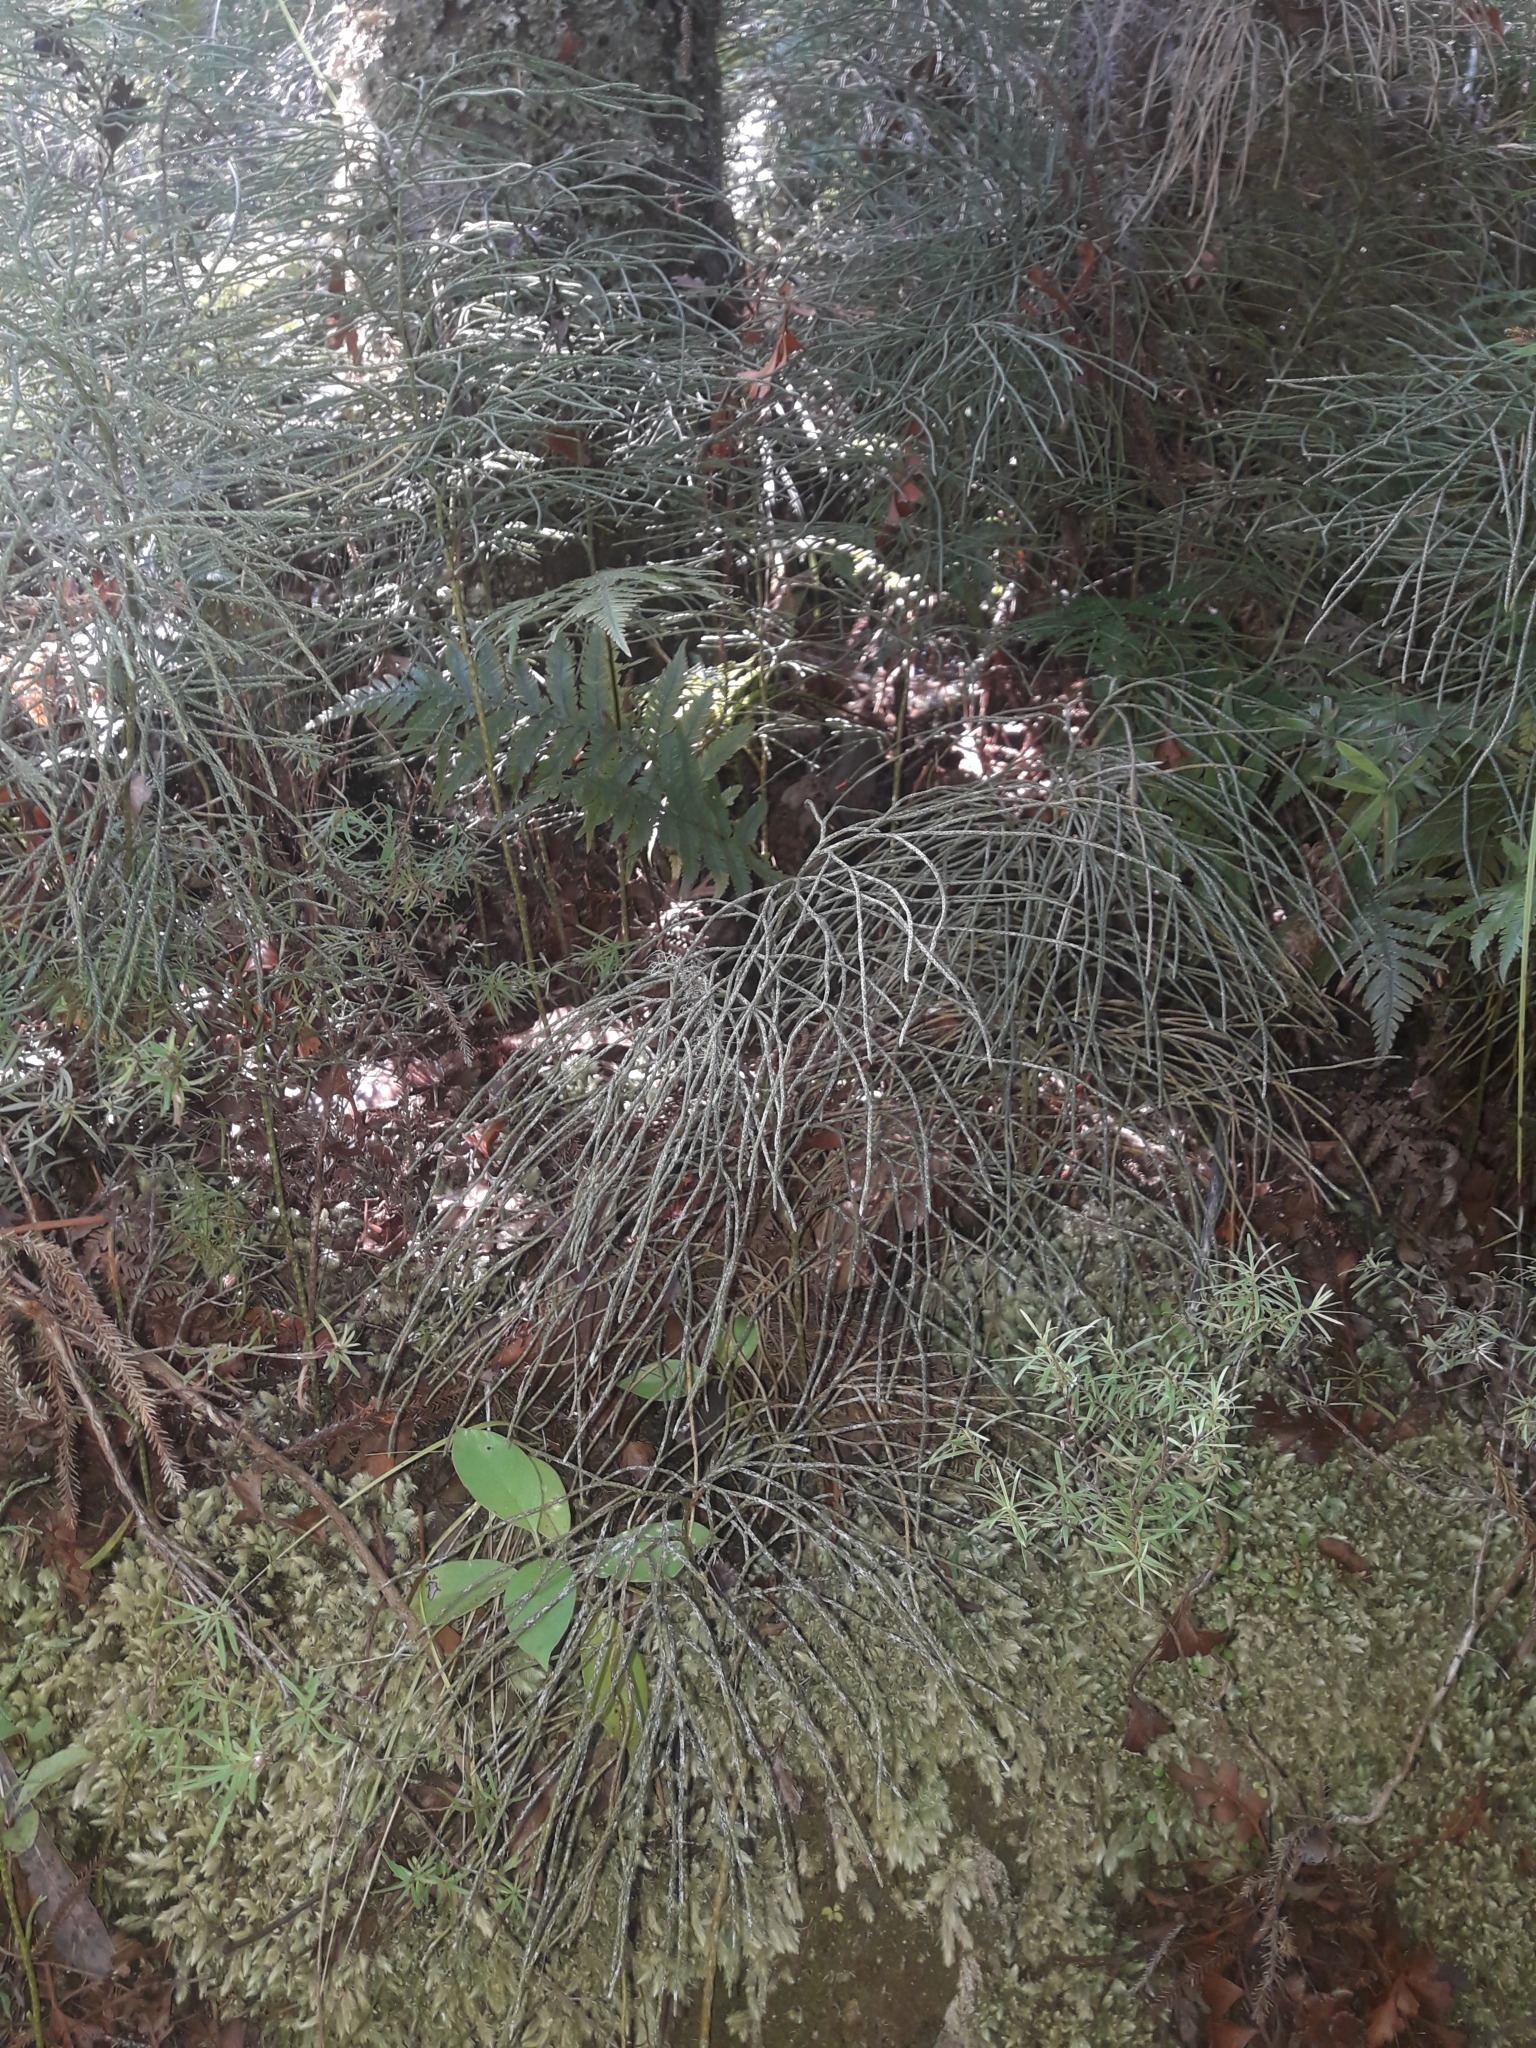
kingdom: Plantae
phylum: Tracheophyta
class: Lycopodiopsida
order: Lycopodiales
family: Lycopodiaceae
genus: Pseudolycopodium
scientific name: Pseudolycopodium densum
